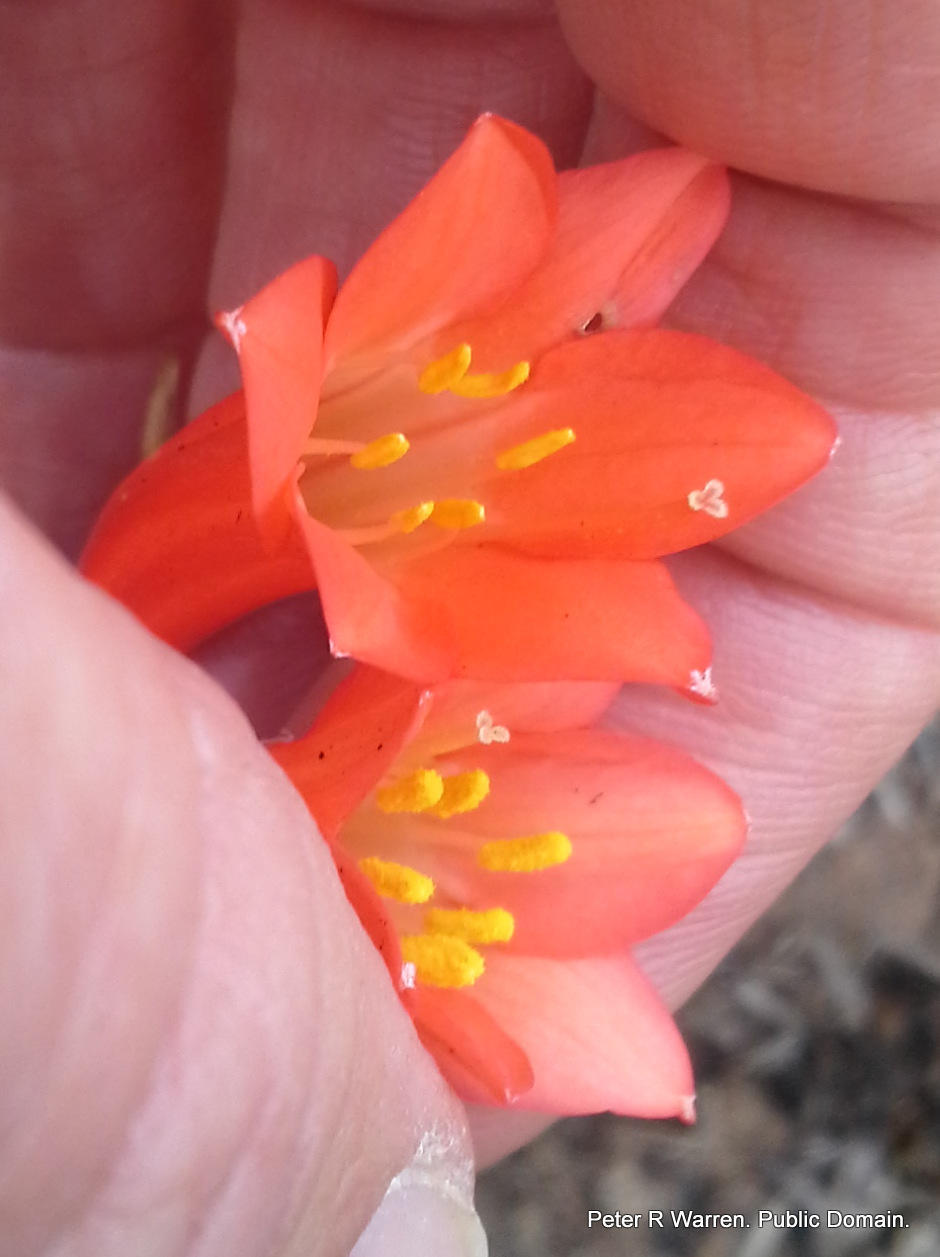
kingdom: Plantae
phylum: Tracheophyta
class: Liliopsida
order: Asparagales
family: Amaryllidaceae
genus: Cyrtanthus
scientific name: Cyrtanthus contractus
